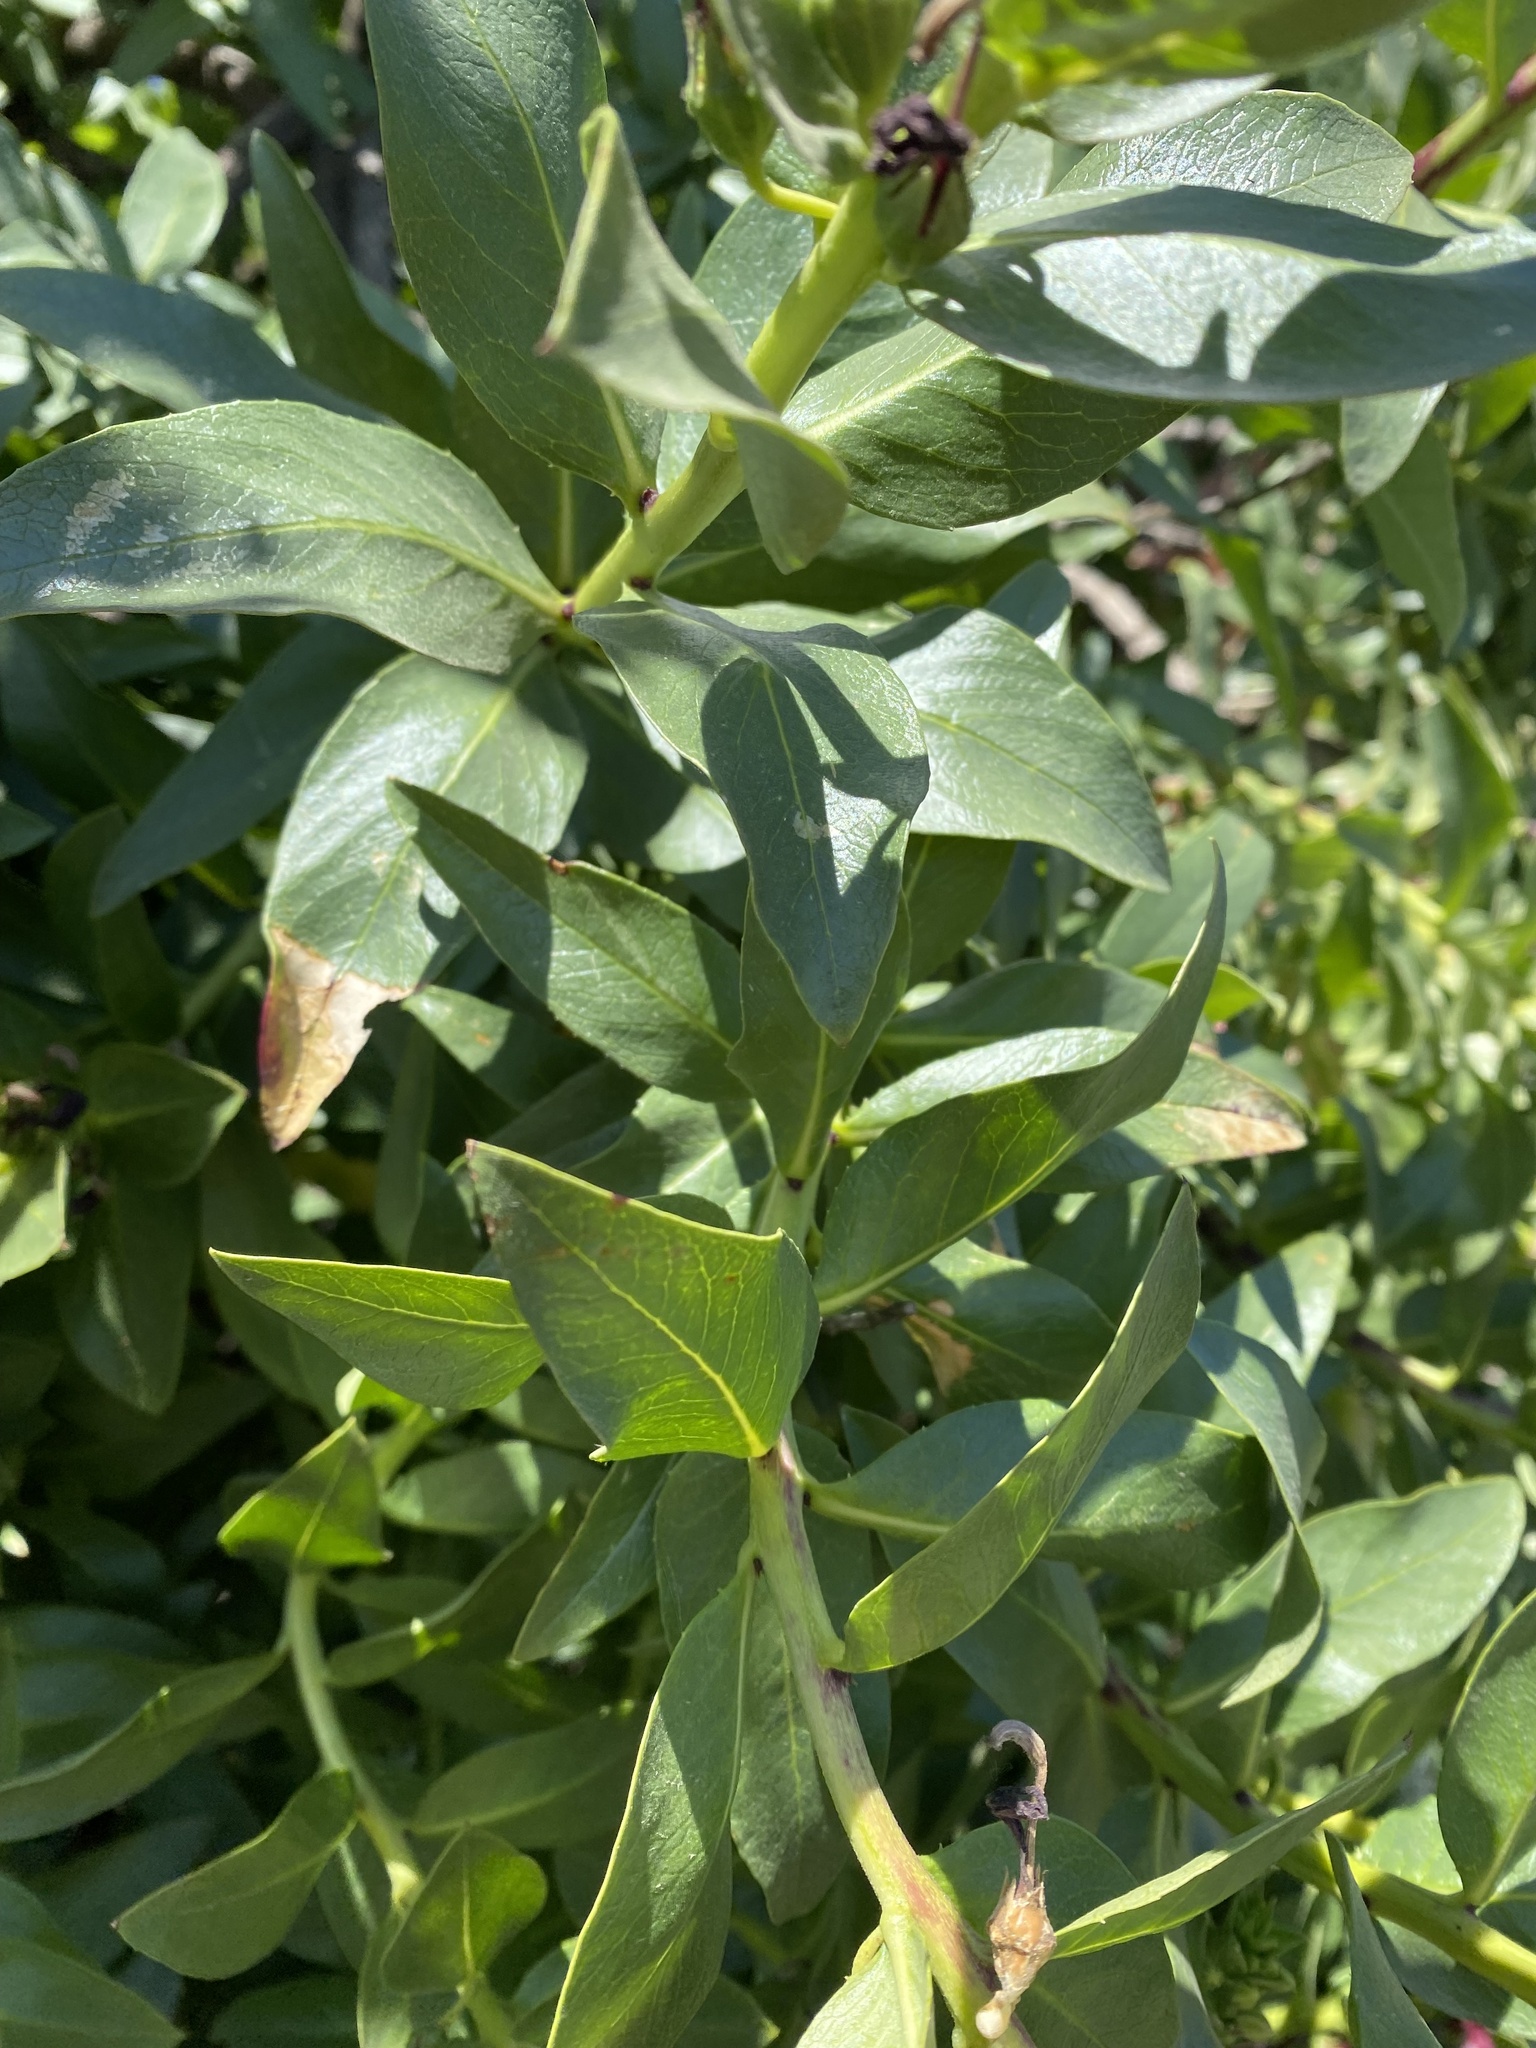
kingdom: Plantae
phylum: Tracheophyta
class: Magnoliopsida
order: Asterales
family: Campanulaceae
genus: Lobelia
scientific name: Lobelia polyphylla
